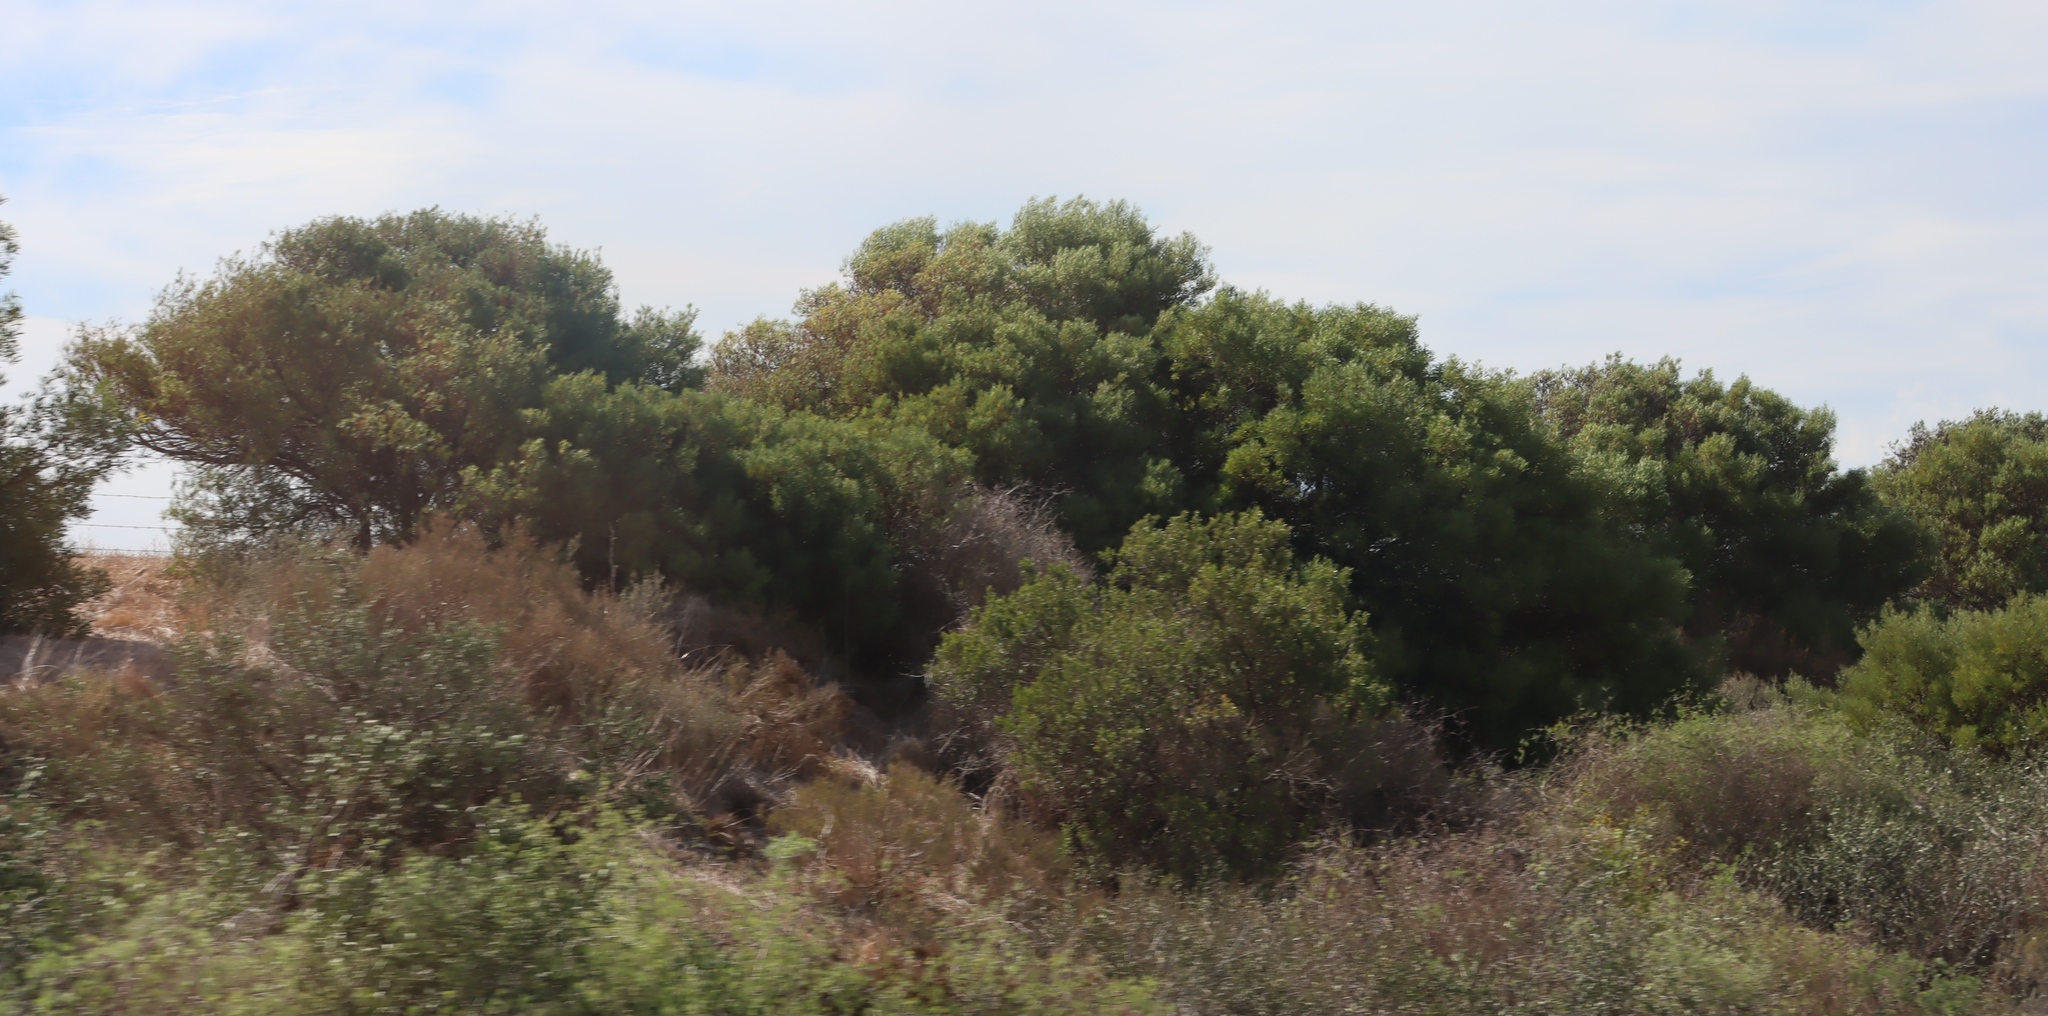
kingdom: Plantae
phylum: Tracheophyta
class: Magnoliopsida
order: Fabales
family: Fabaceae
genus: Acacia
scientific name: Acacia saligna
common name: Orange wattle
